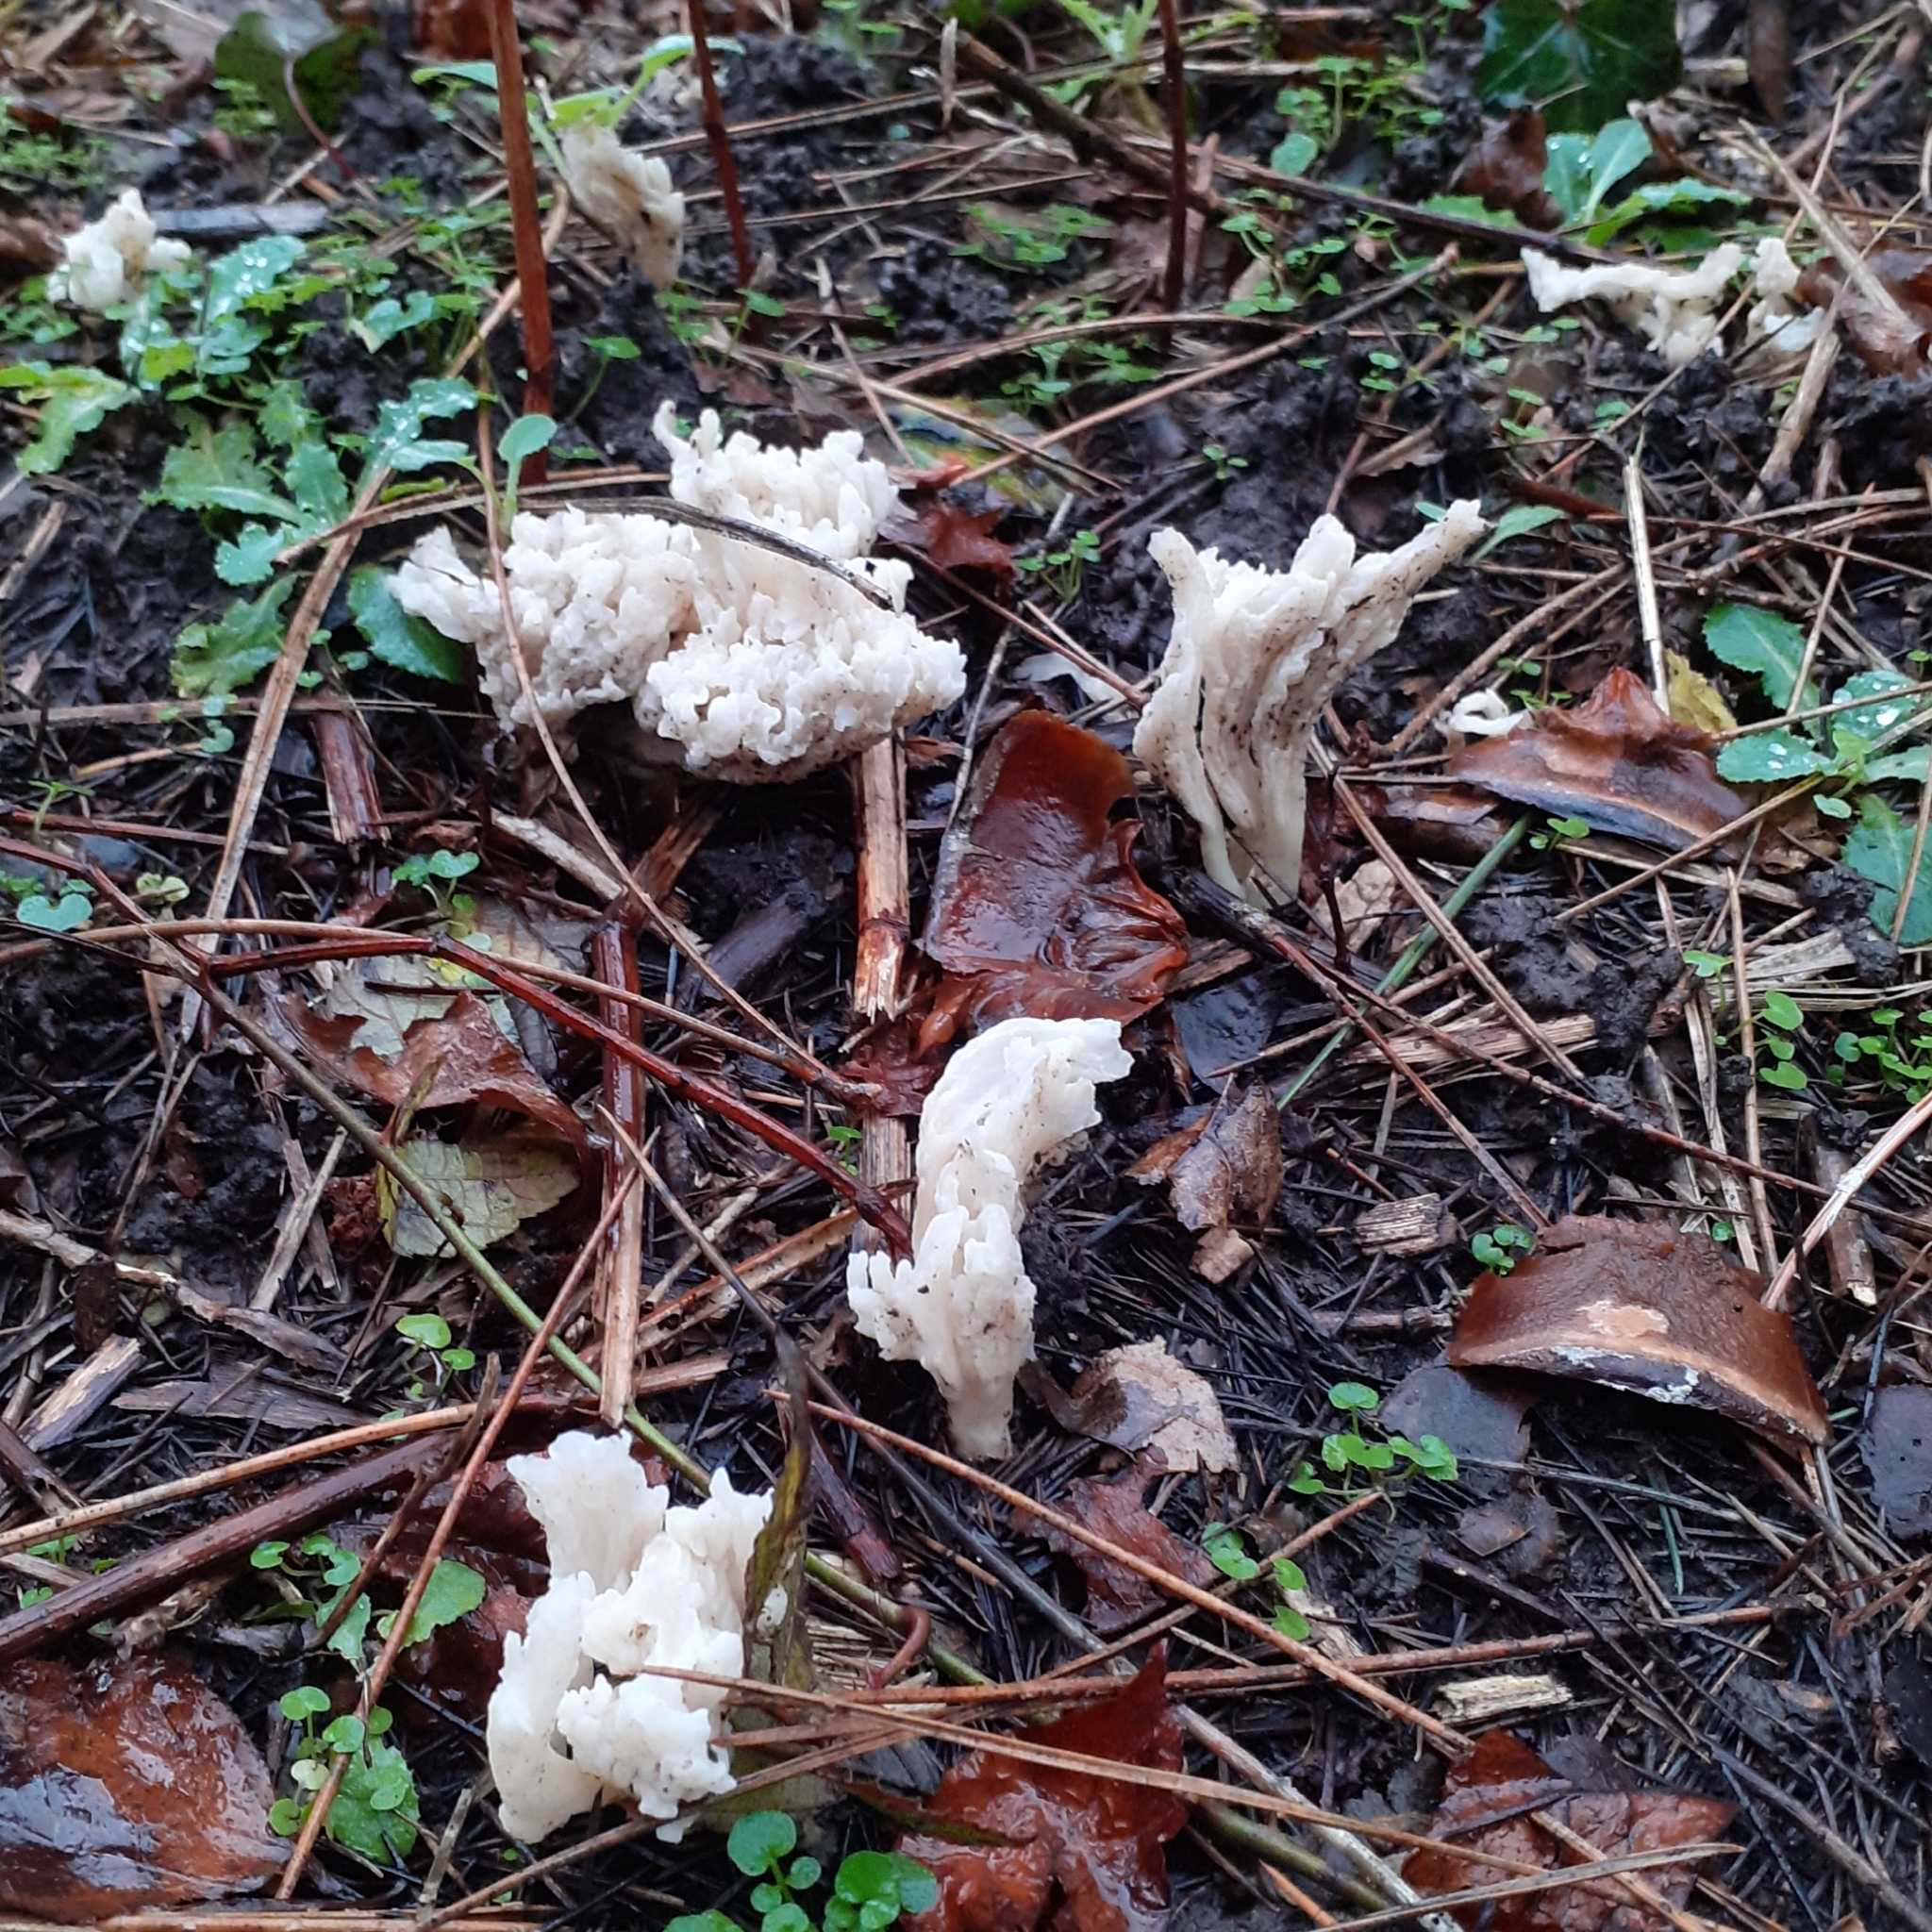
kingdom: Fungi
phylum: Basidiomycota
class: Agaricomycetes
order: Cantharellales
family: Hydnaceae
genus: Clavulina
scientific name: Clavulina rugosa
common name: Wrinkled club
